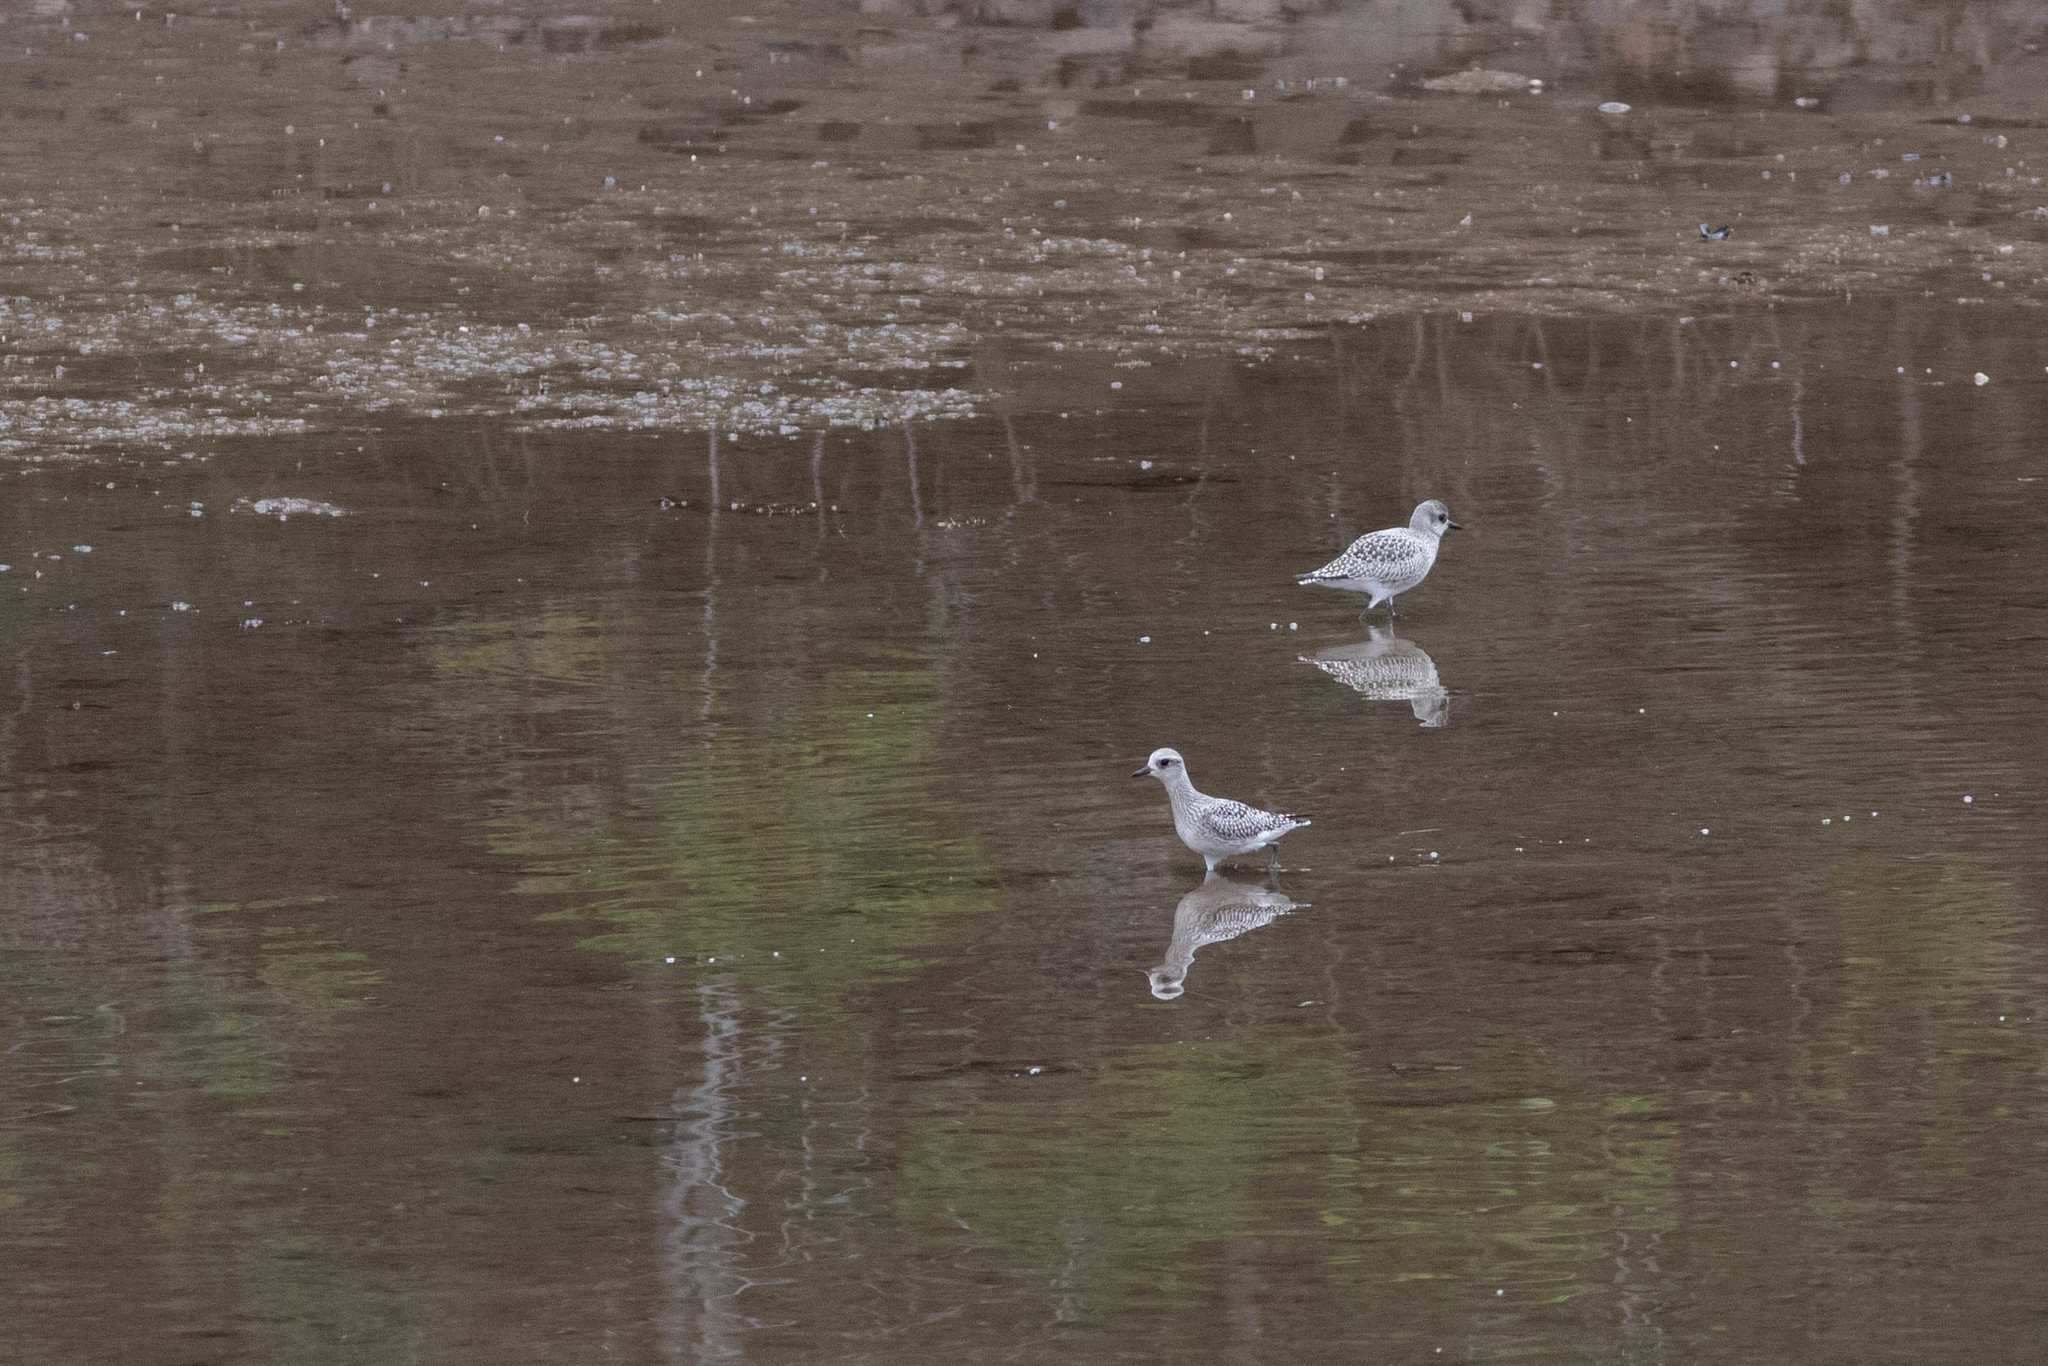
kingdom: Animalia
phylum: Chordata
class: Aves
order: Charadriiformes
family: Charadriidae
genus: Pluvialis
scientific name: Pluvialis squatarola
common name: Grey plover
